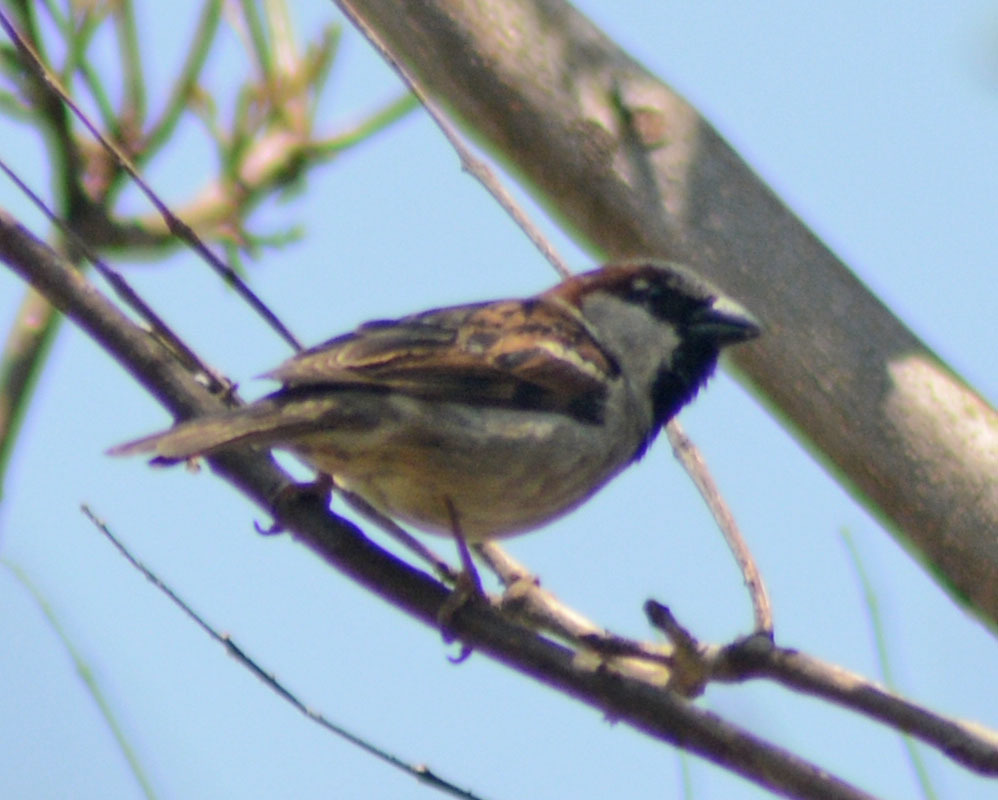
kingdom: Animalia
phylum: Chordata
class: Aves
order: Passeriformes
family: Passeridae
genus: Passer
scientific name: Passer domesticus
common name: House sparrow
